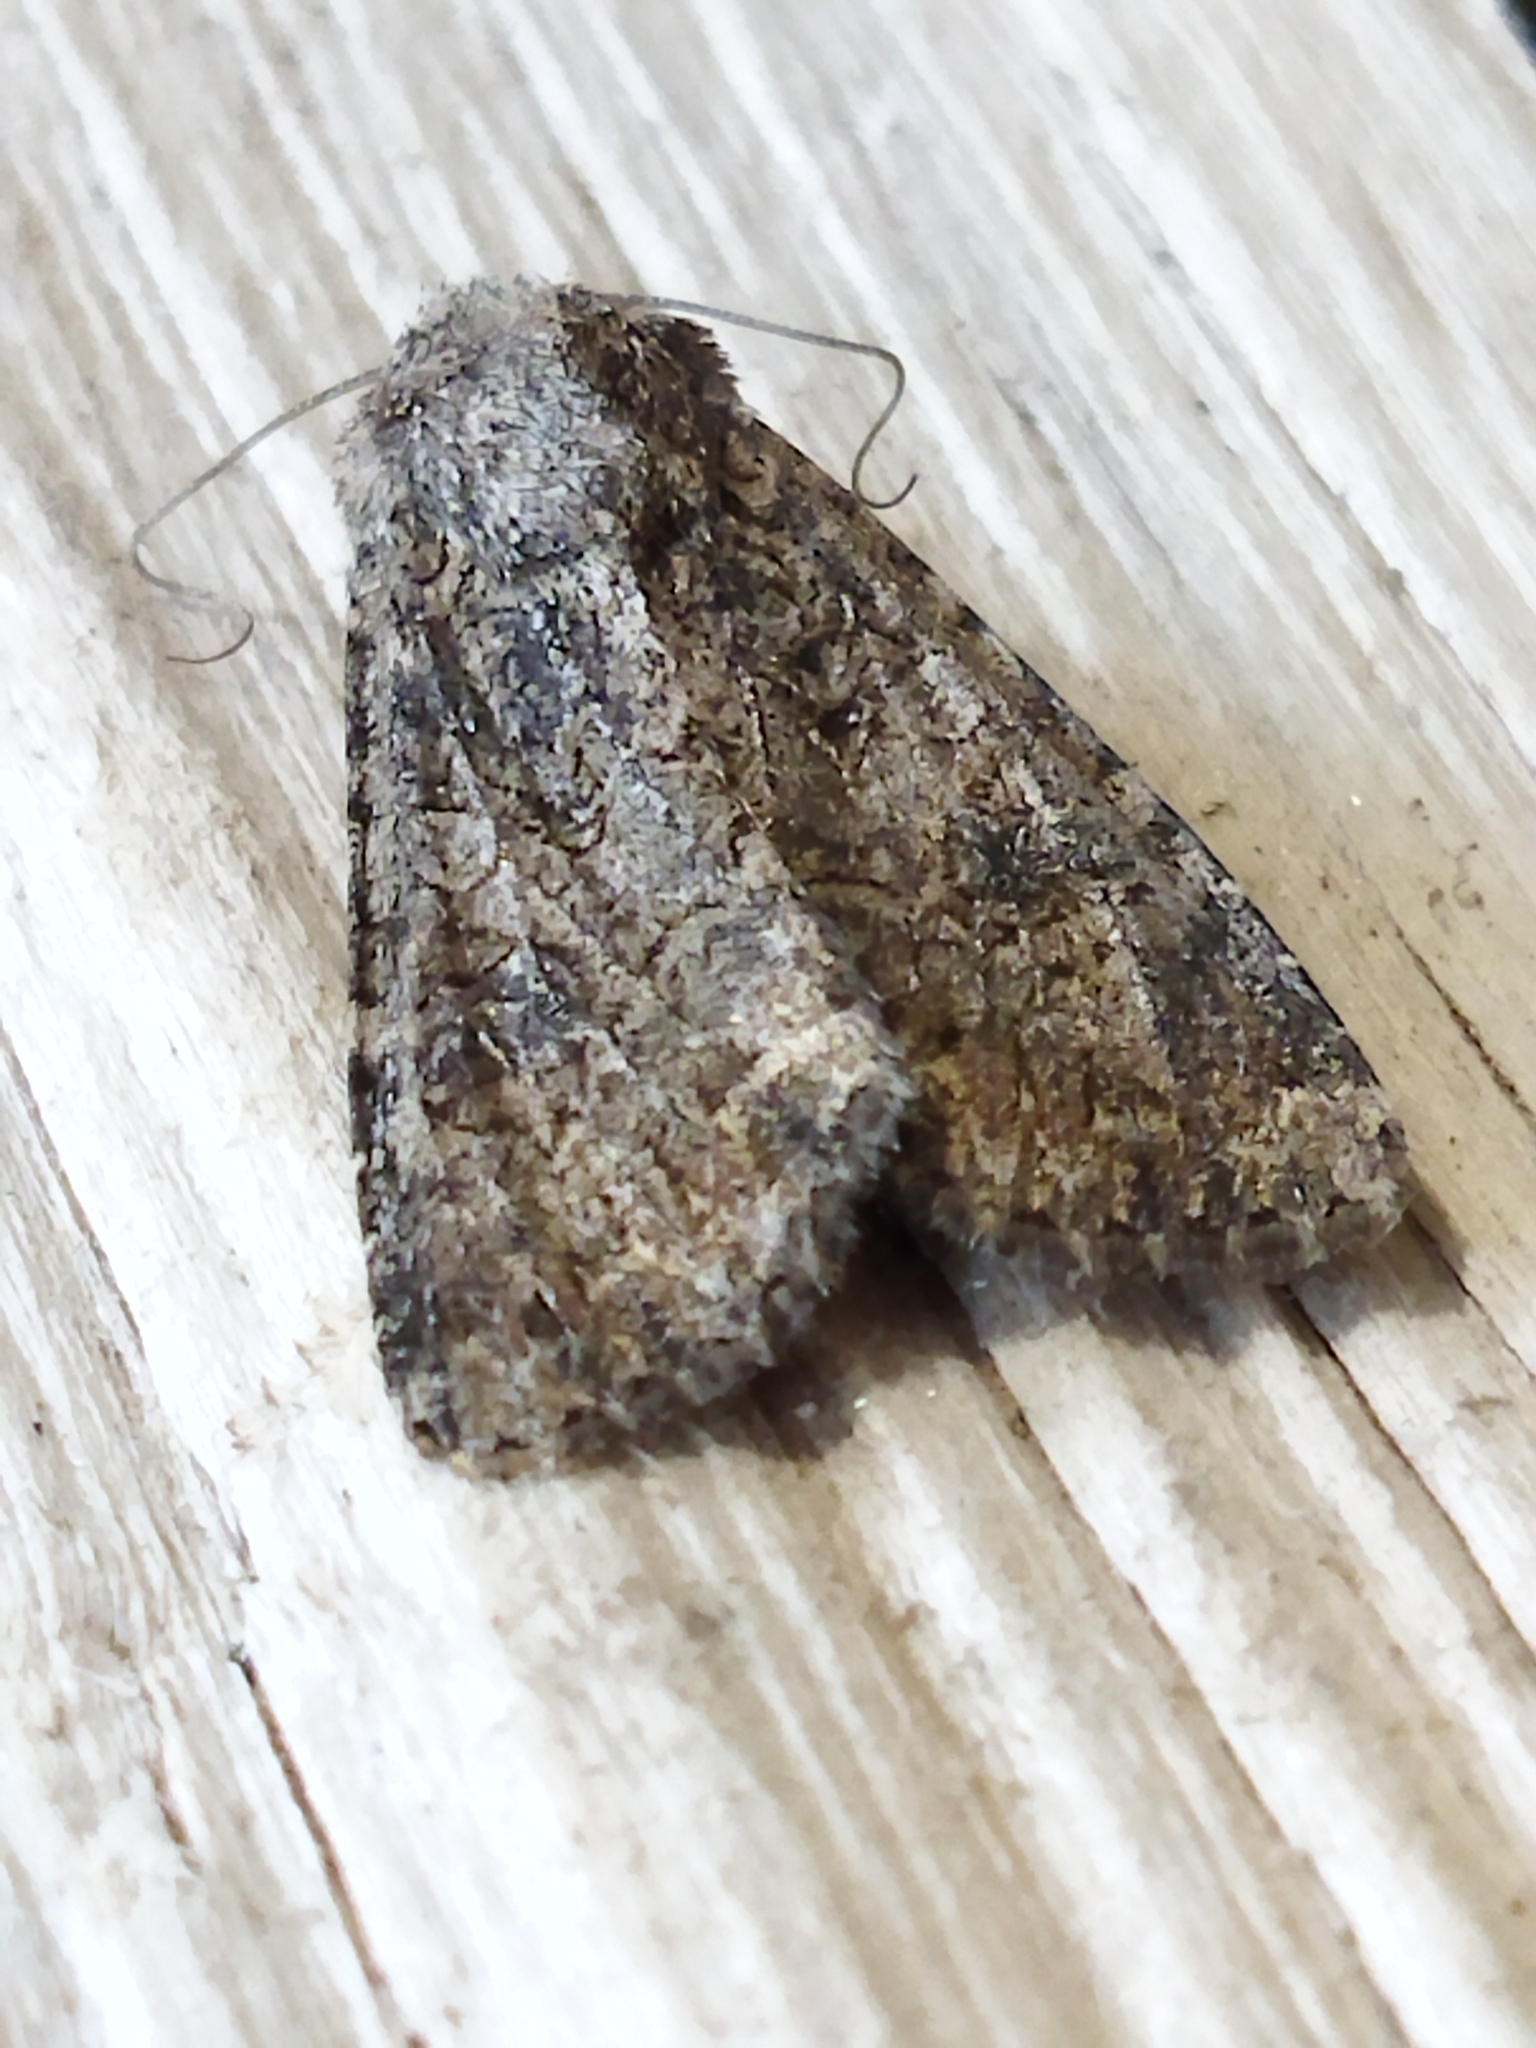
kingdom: Animalia
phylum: Arthropoda
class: Insecta
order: Lepidoptera
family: Noctuidae
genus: Anarta
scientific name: Anarta trifolii
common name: Clover cutworm moth
